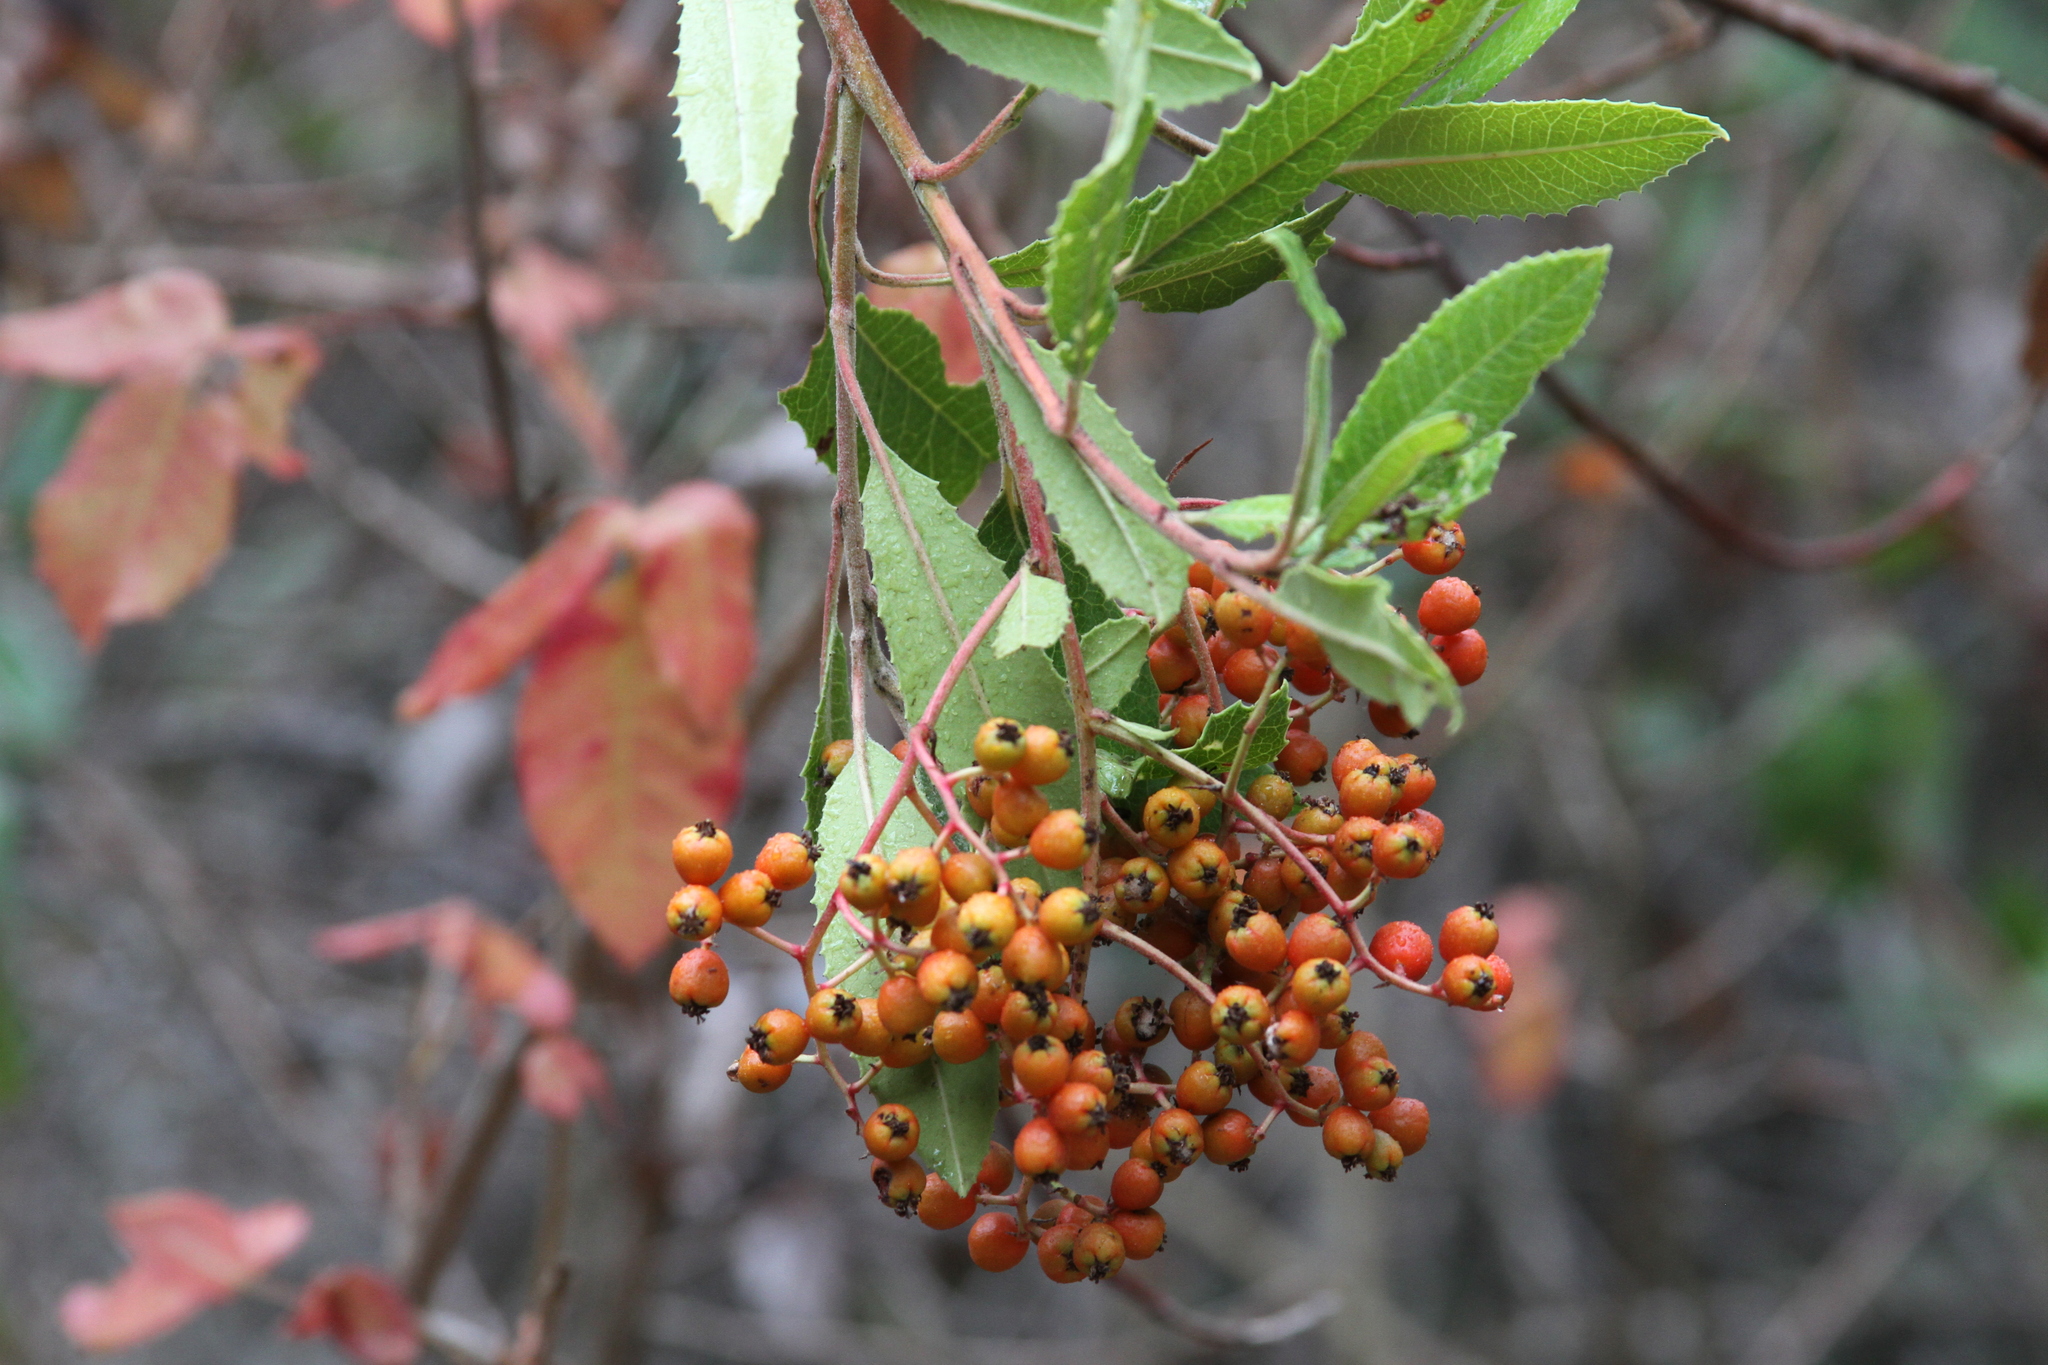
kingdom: Plantae
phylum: Tracheophyta
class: Magnoliopsida
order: Rosales
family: Rosaceae
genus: Heteromeles
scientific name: Heteromeles arbutifolia
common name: California-holly
